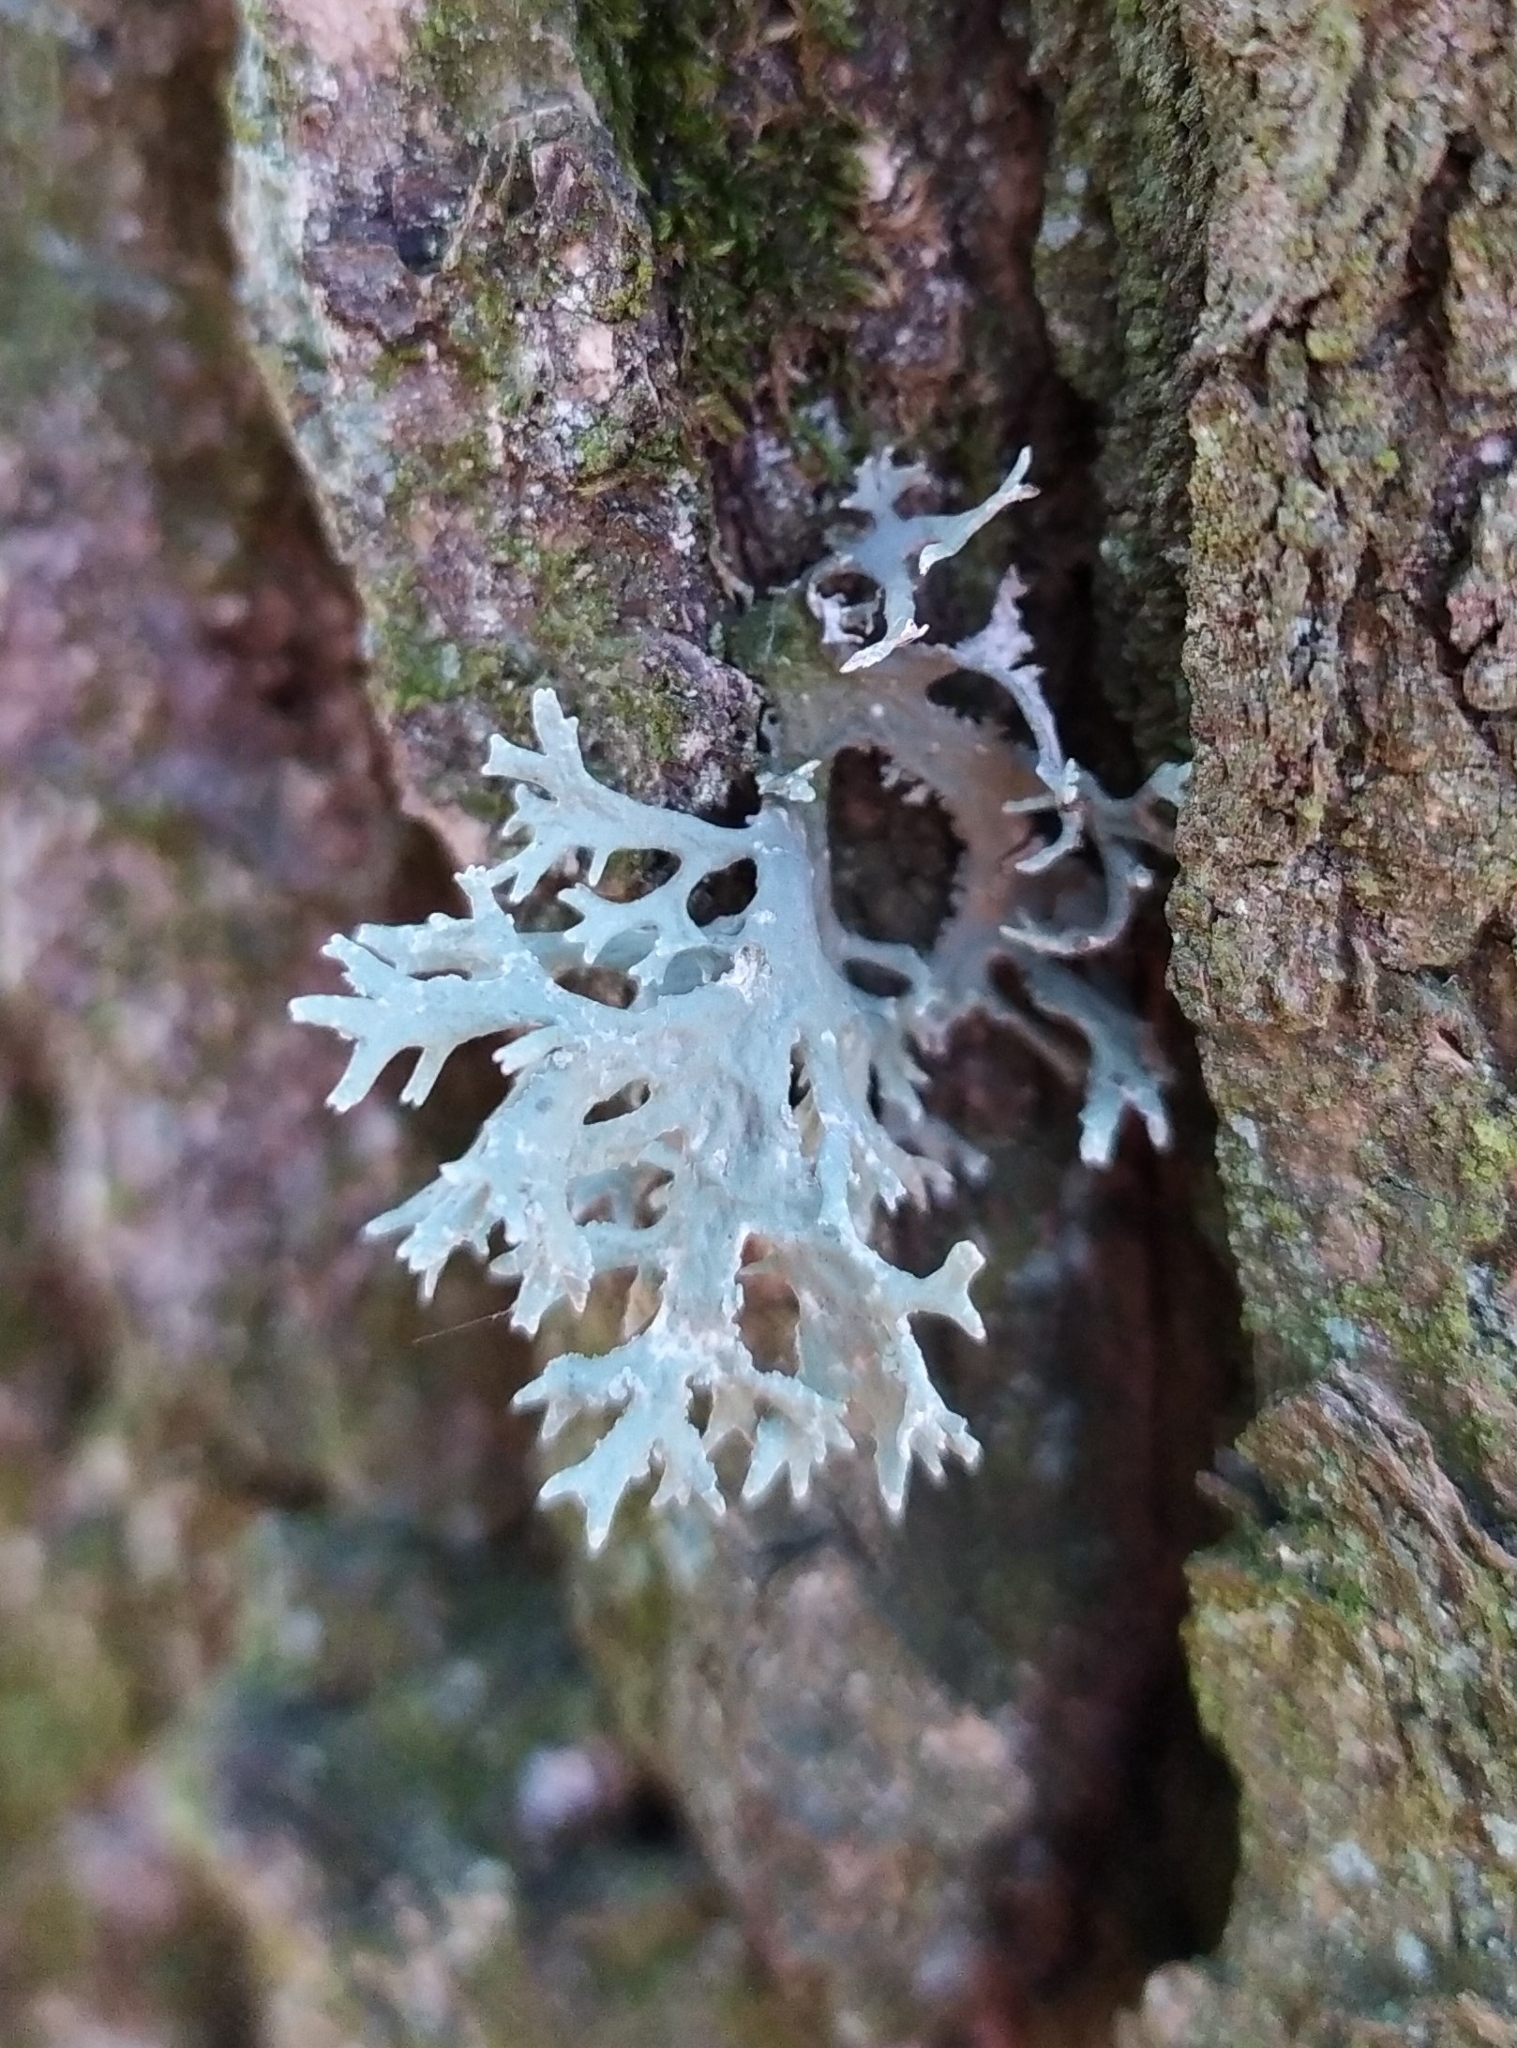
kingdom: Fungi
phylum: Ascomycota
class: Lecanoromycetes
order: Lecanorales
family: Parmeliaceae
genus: Evernia
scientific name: Evernia prunastri
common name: Oak moss
